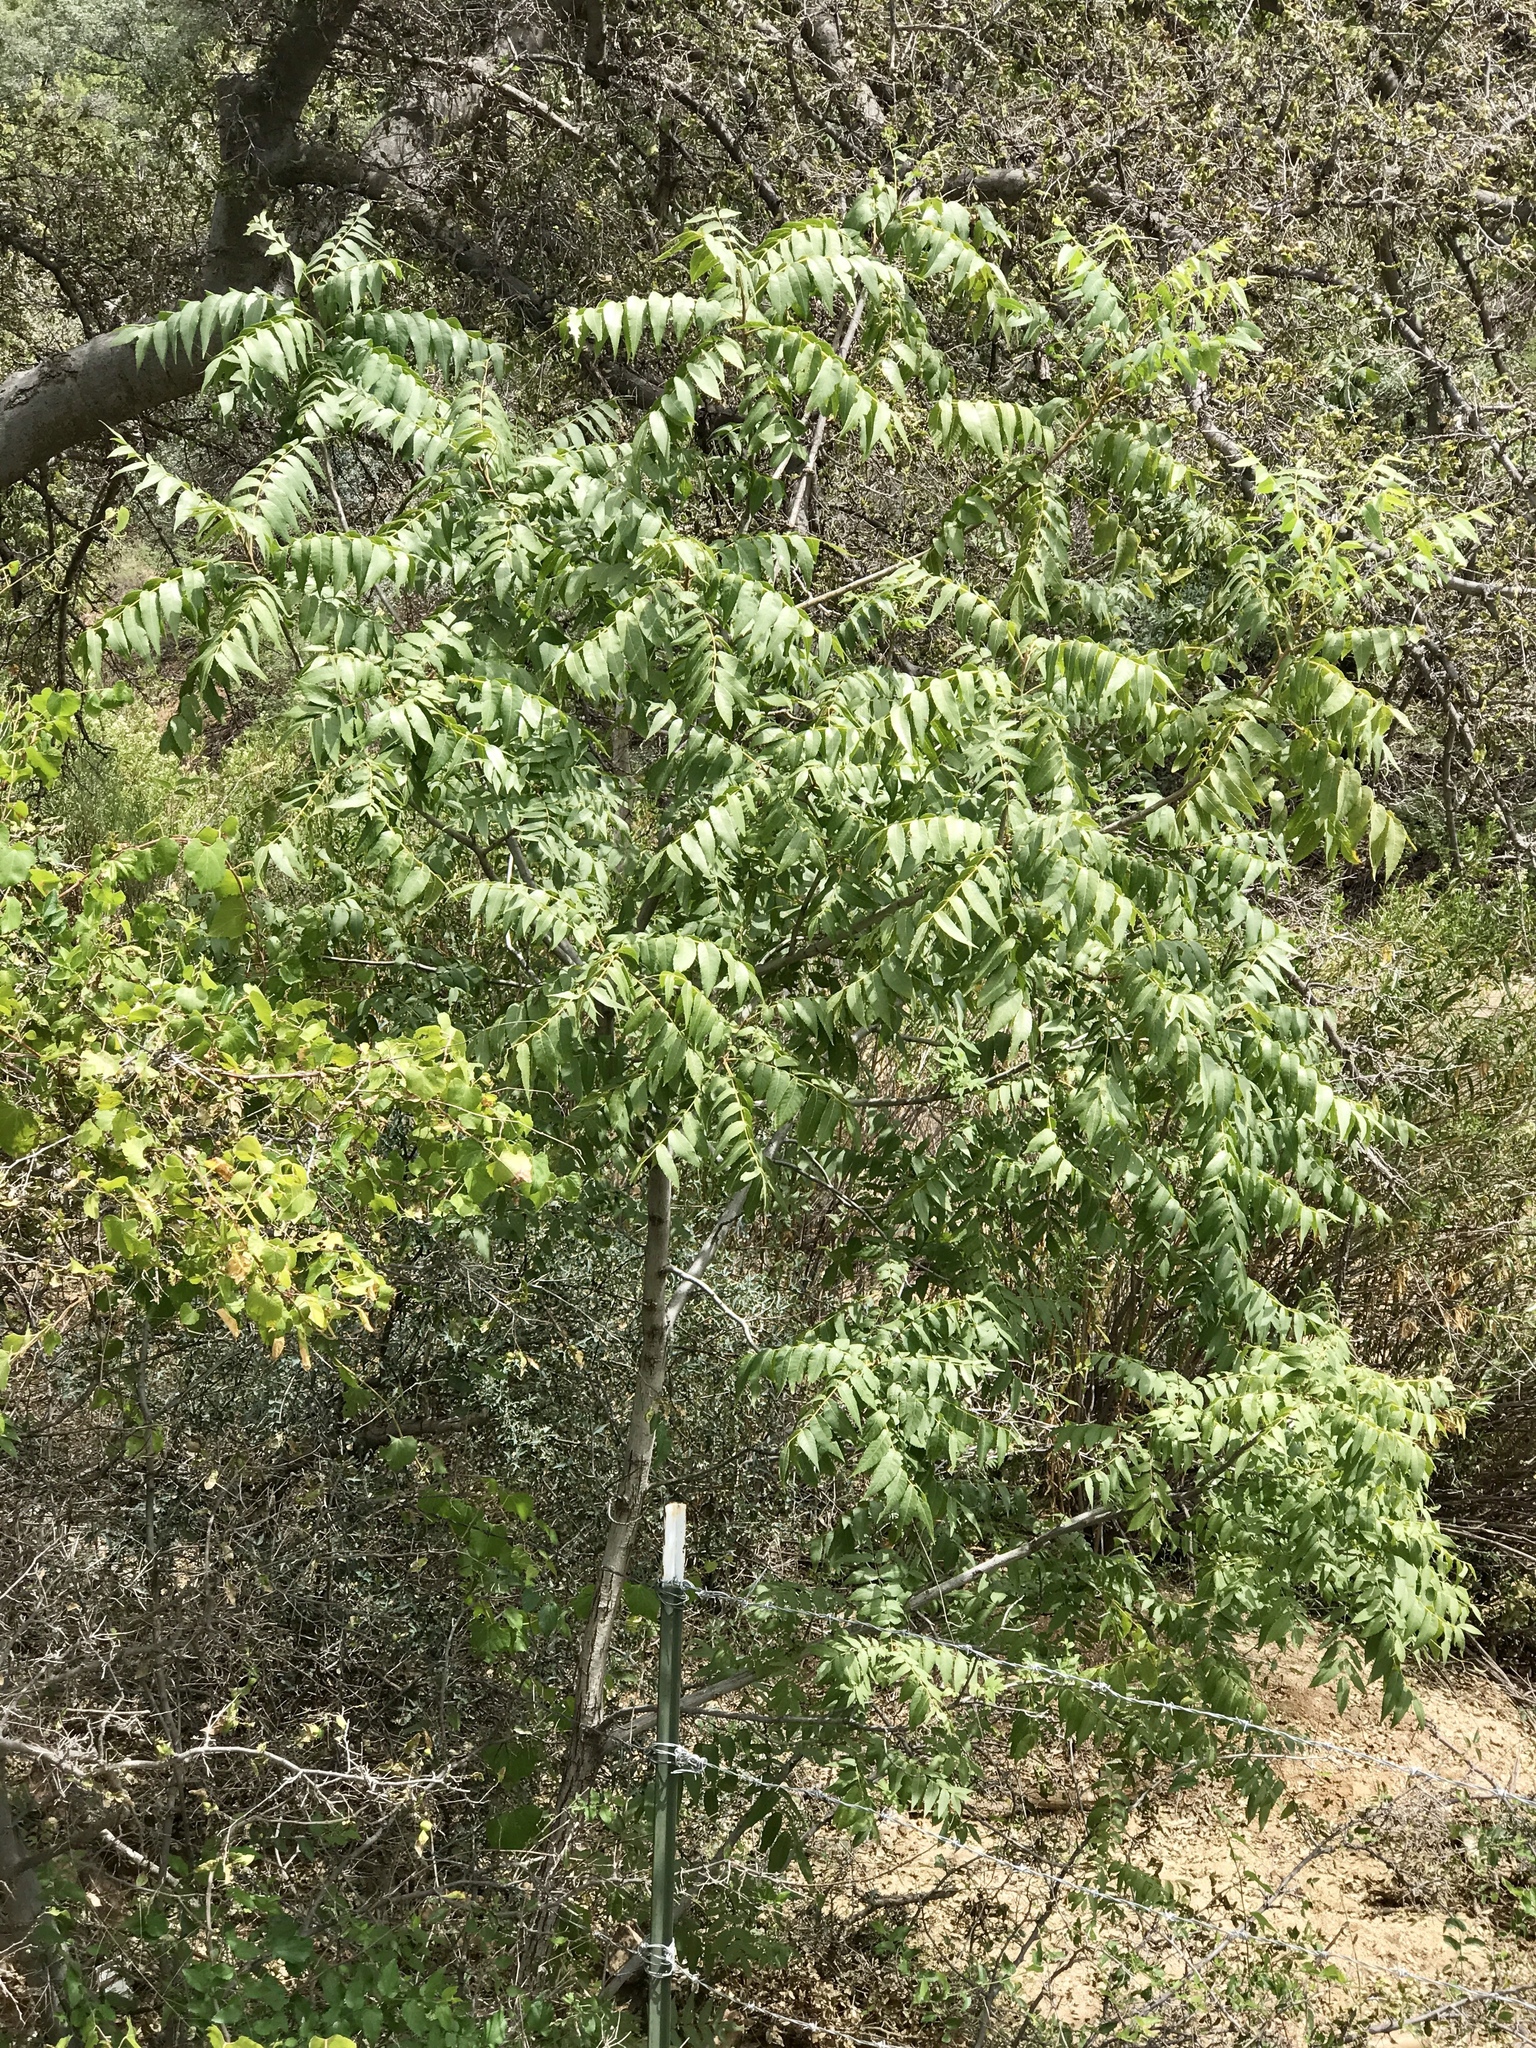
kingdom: Plantae
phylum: Tracheophyta
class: Magnoliopsida
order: Fagales
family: Juglandaceae
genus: Juglans
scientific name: Juglans major
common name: Arizona walnut
